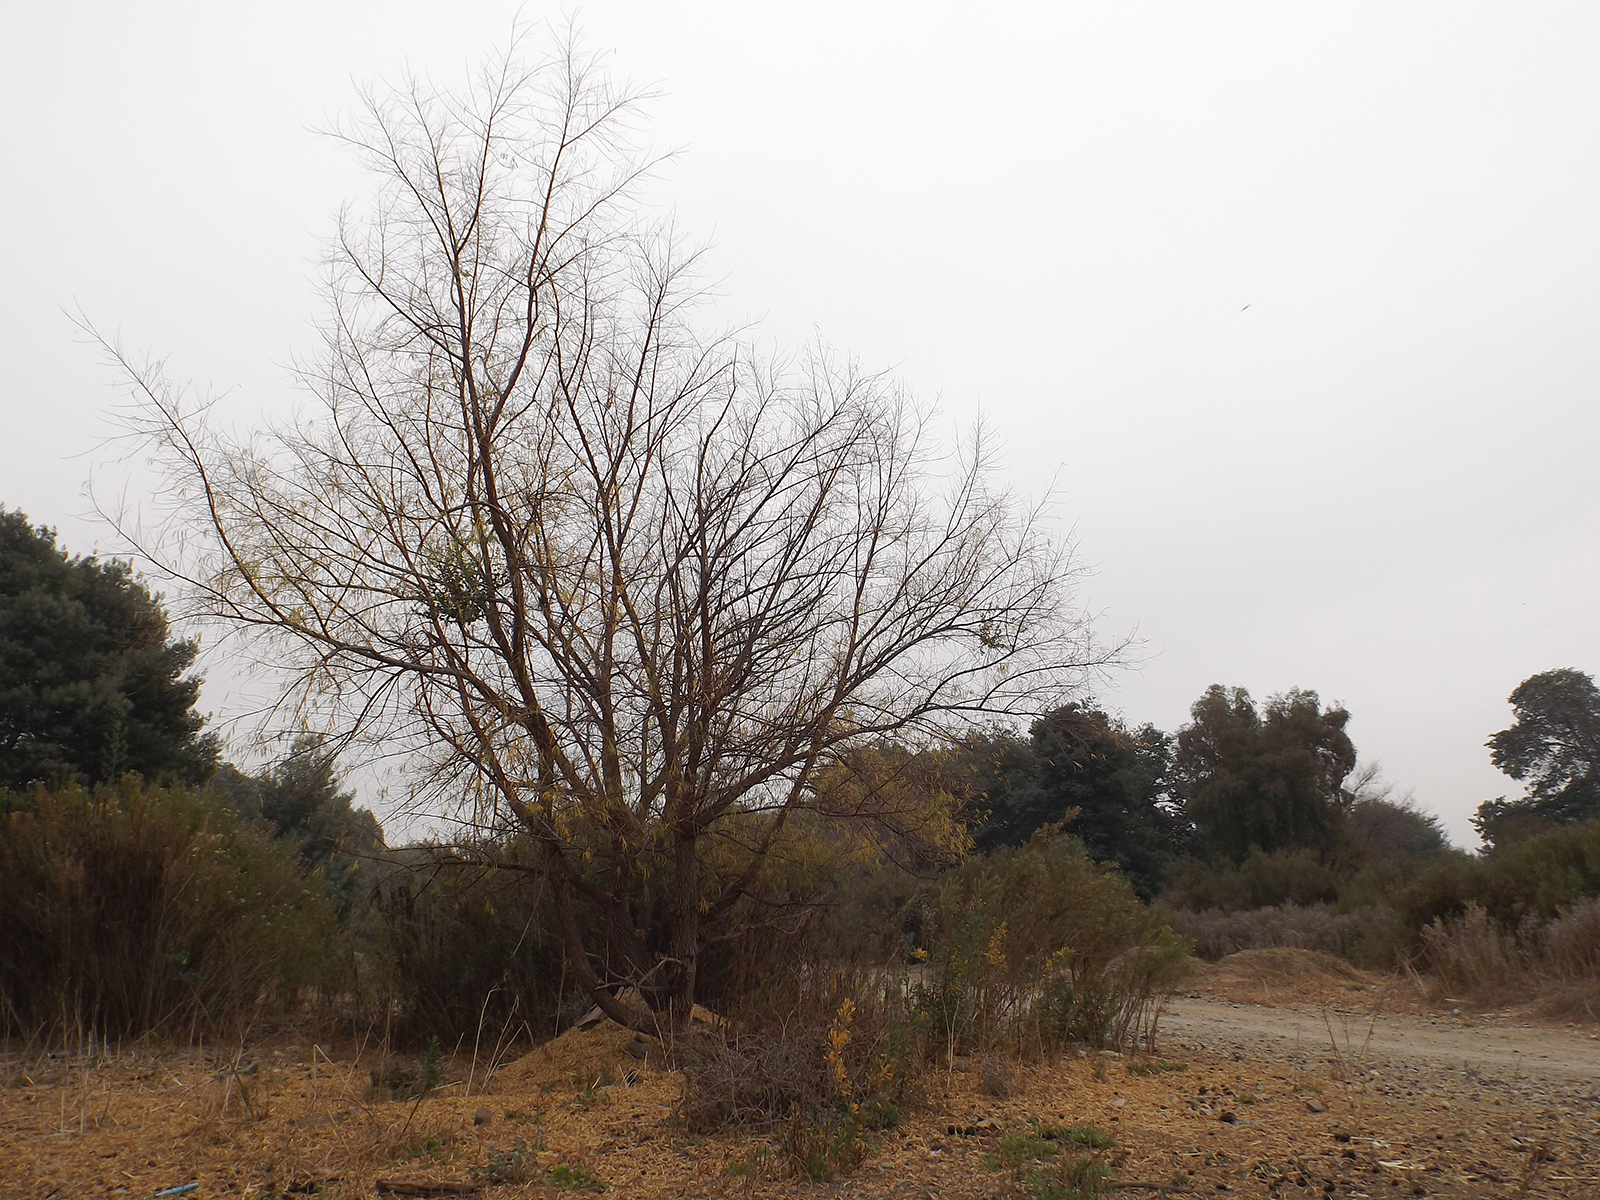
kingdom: Plantae
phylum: Tracheophyta
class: Magnoliopsida
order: Malpighiales
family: Salicaceae
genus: Salix
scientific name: Salix humboldtiana
